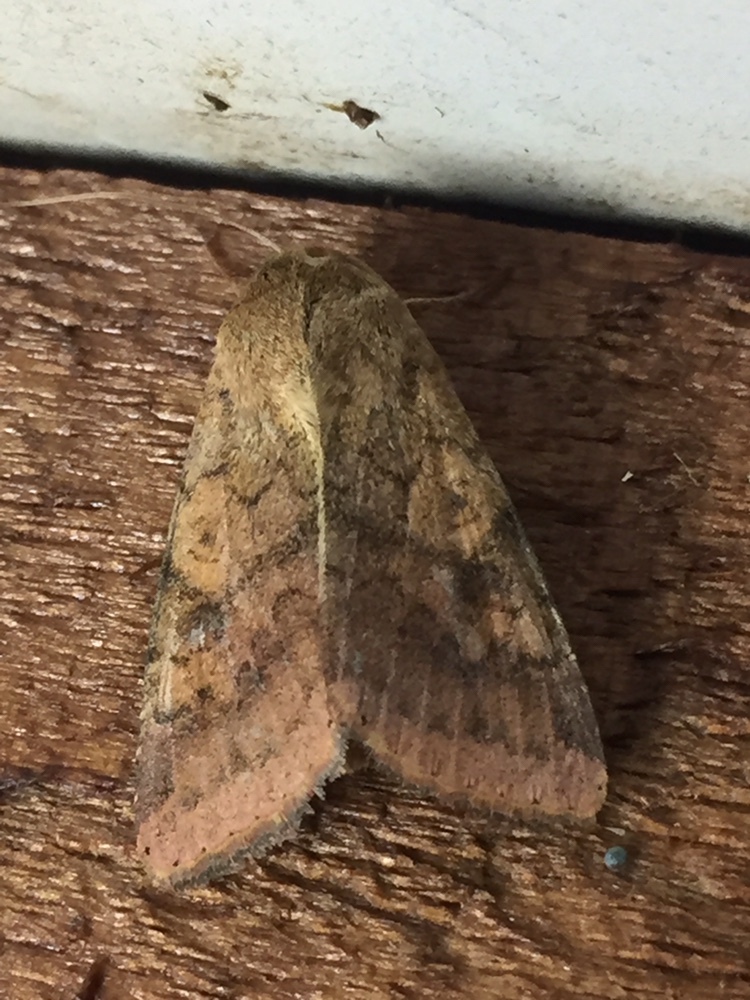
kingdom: Animalia
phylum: Arthropoda
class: Insecta
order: Lepidoptera
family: Noctuidae
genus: Helicoverpa
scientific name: Helicoverpa armigera
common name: Cotton bollworm
